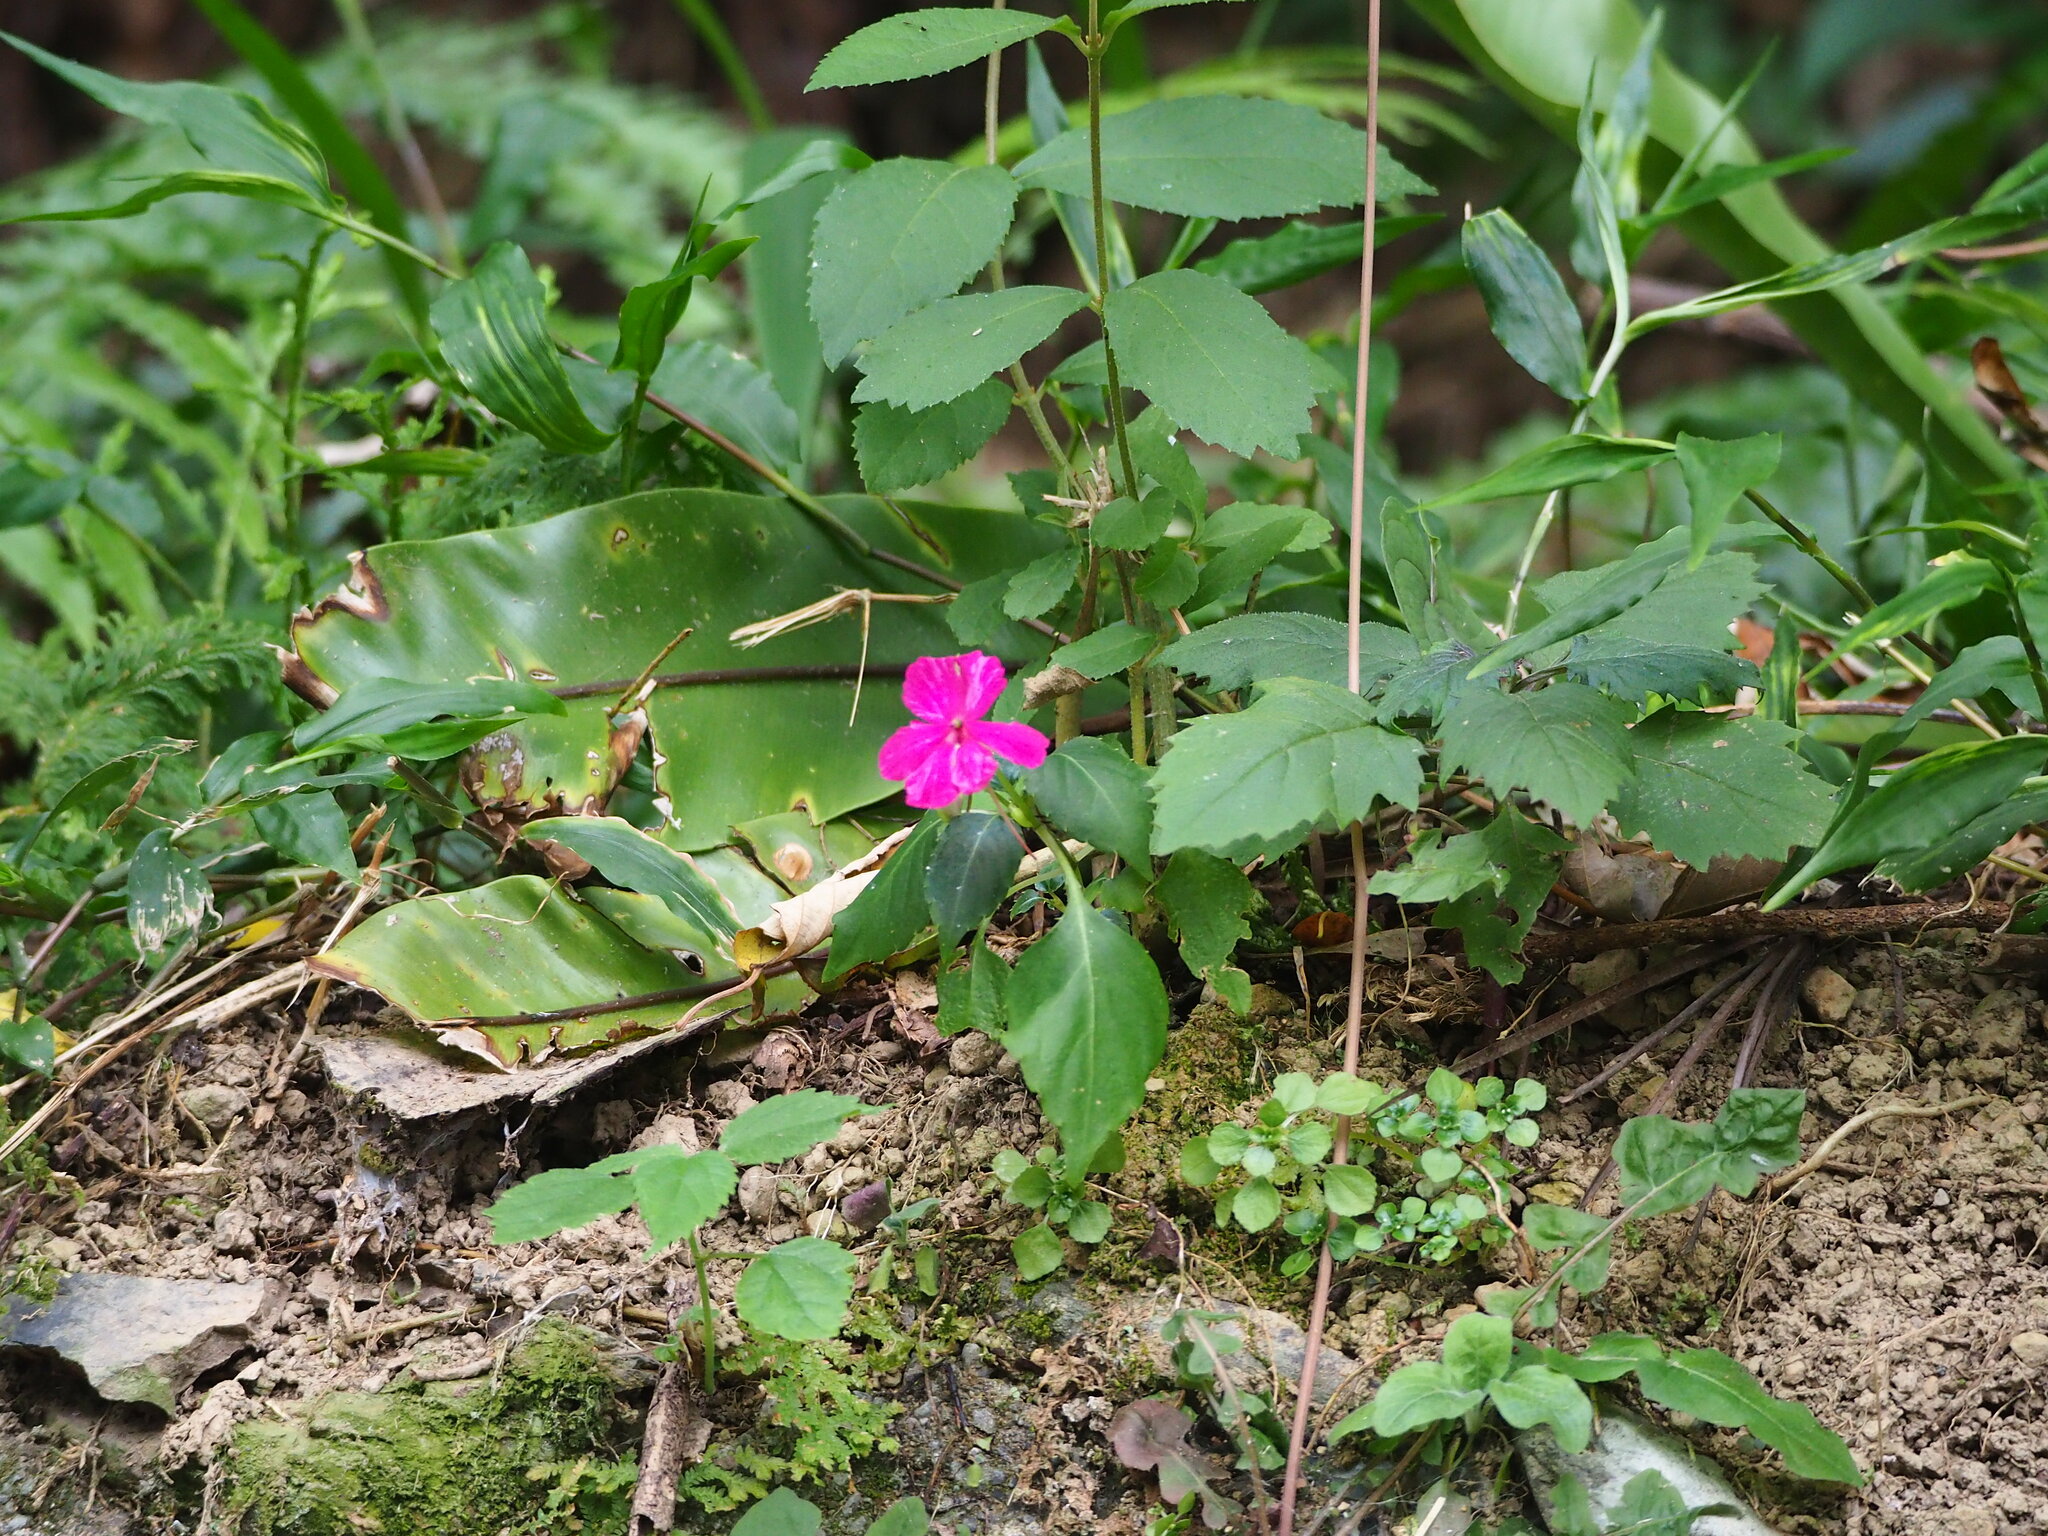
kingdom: Plantae
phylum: Tracheophyta
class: Magnoliopsida
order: Ericales
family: Balsaminaceae
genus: Impatiens
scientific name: Impatiens walleriana
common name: Buzzy lizzy
